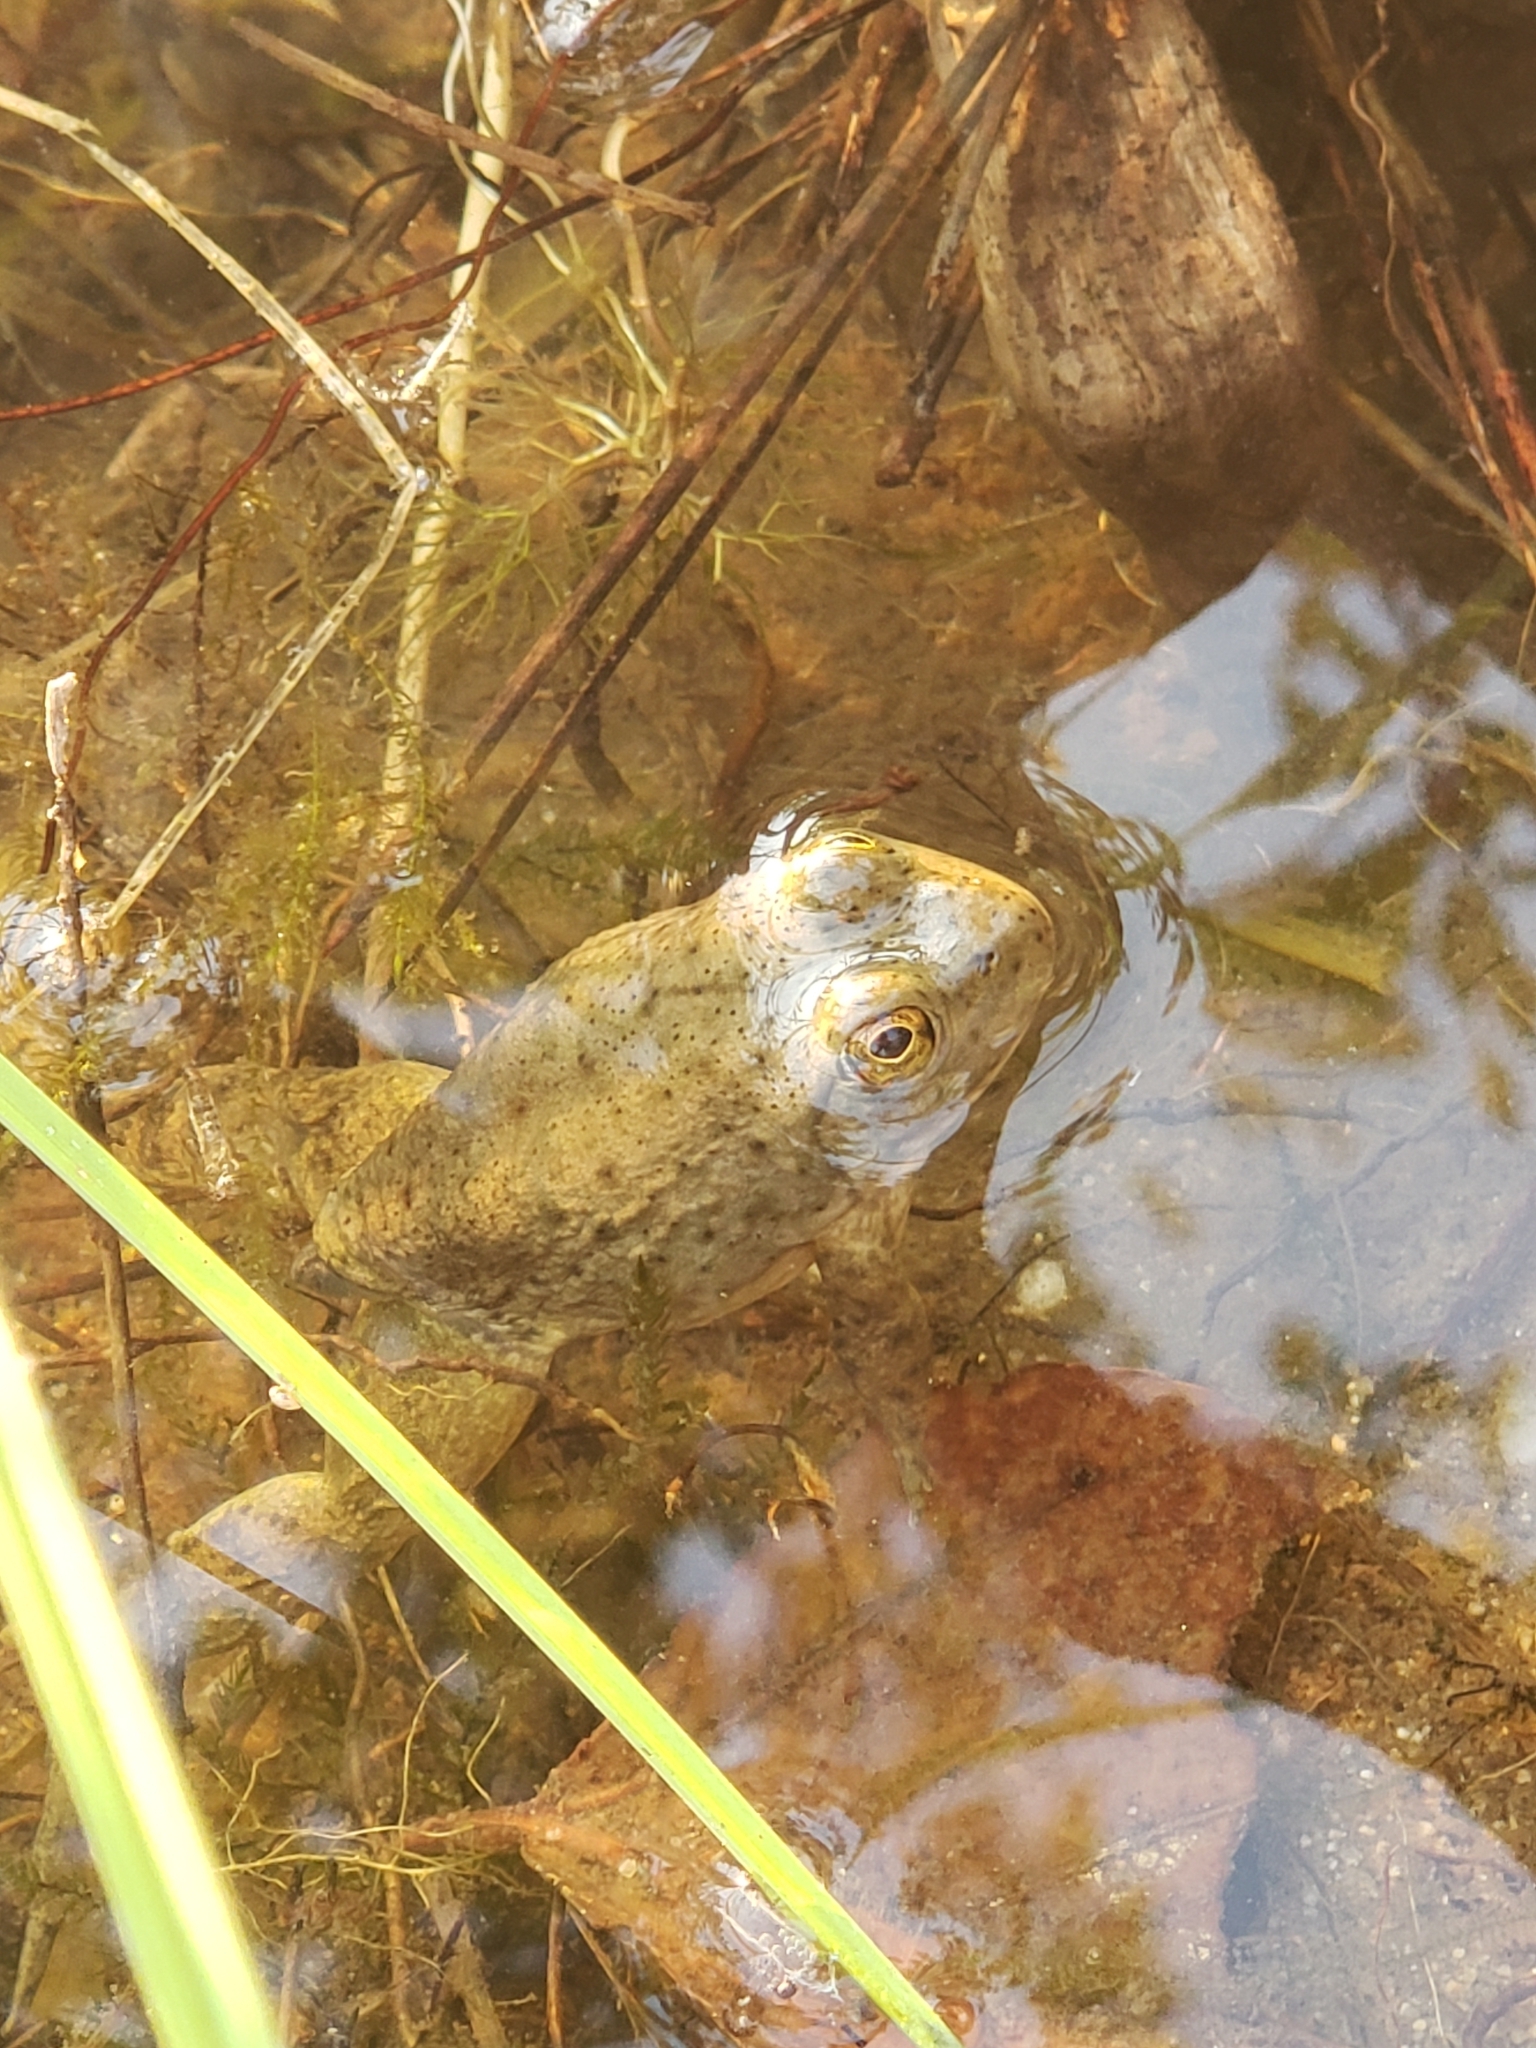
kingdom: Animalia
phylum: Chordata
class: Amphibia
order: Anura
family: Ranidae
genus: Rana
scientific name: Rana luteiventris
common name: Columbia spotted frog
